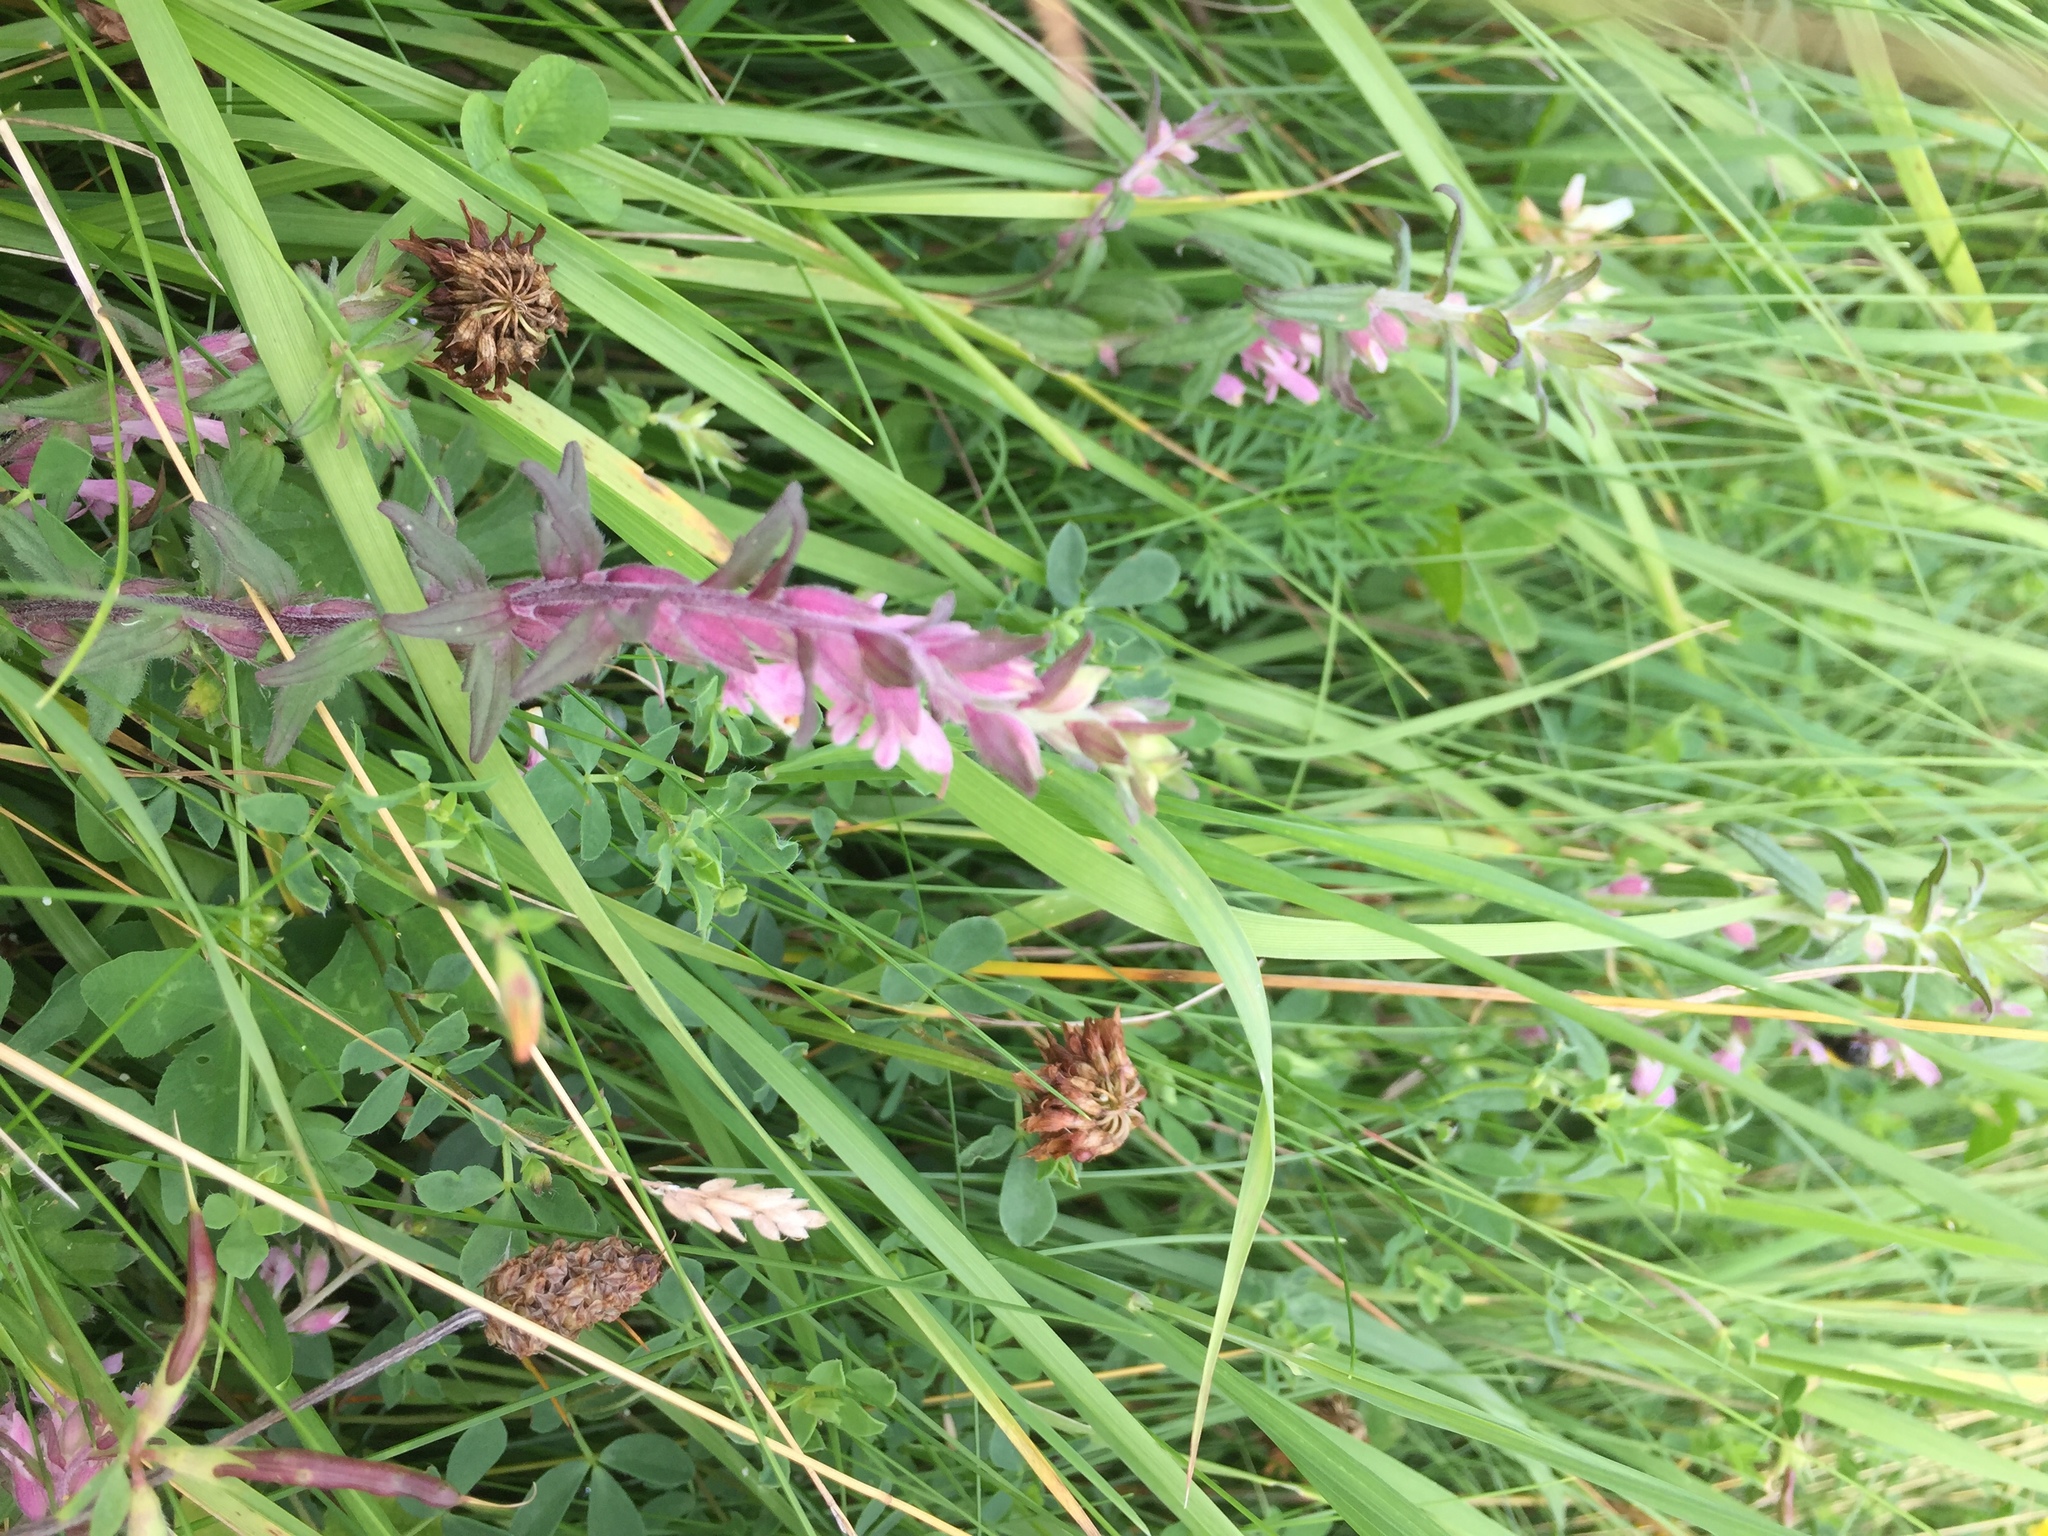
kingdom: Plantae
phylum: Tracheophyta
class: Magnoliopsida
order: Lamiales
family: Orobanchaceae
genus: Odontites
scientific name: Odontites vulgaris
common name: Broomrape
